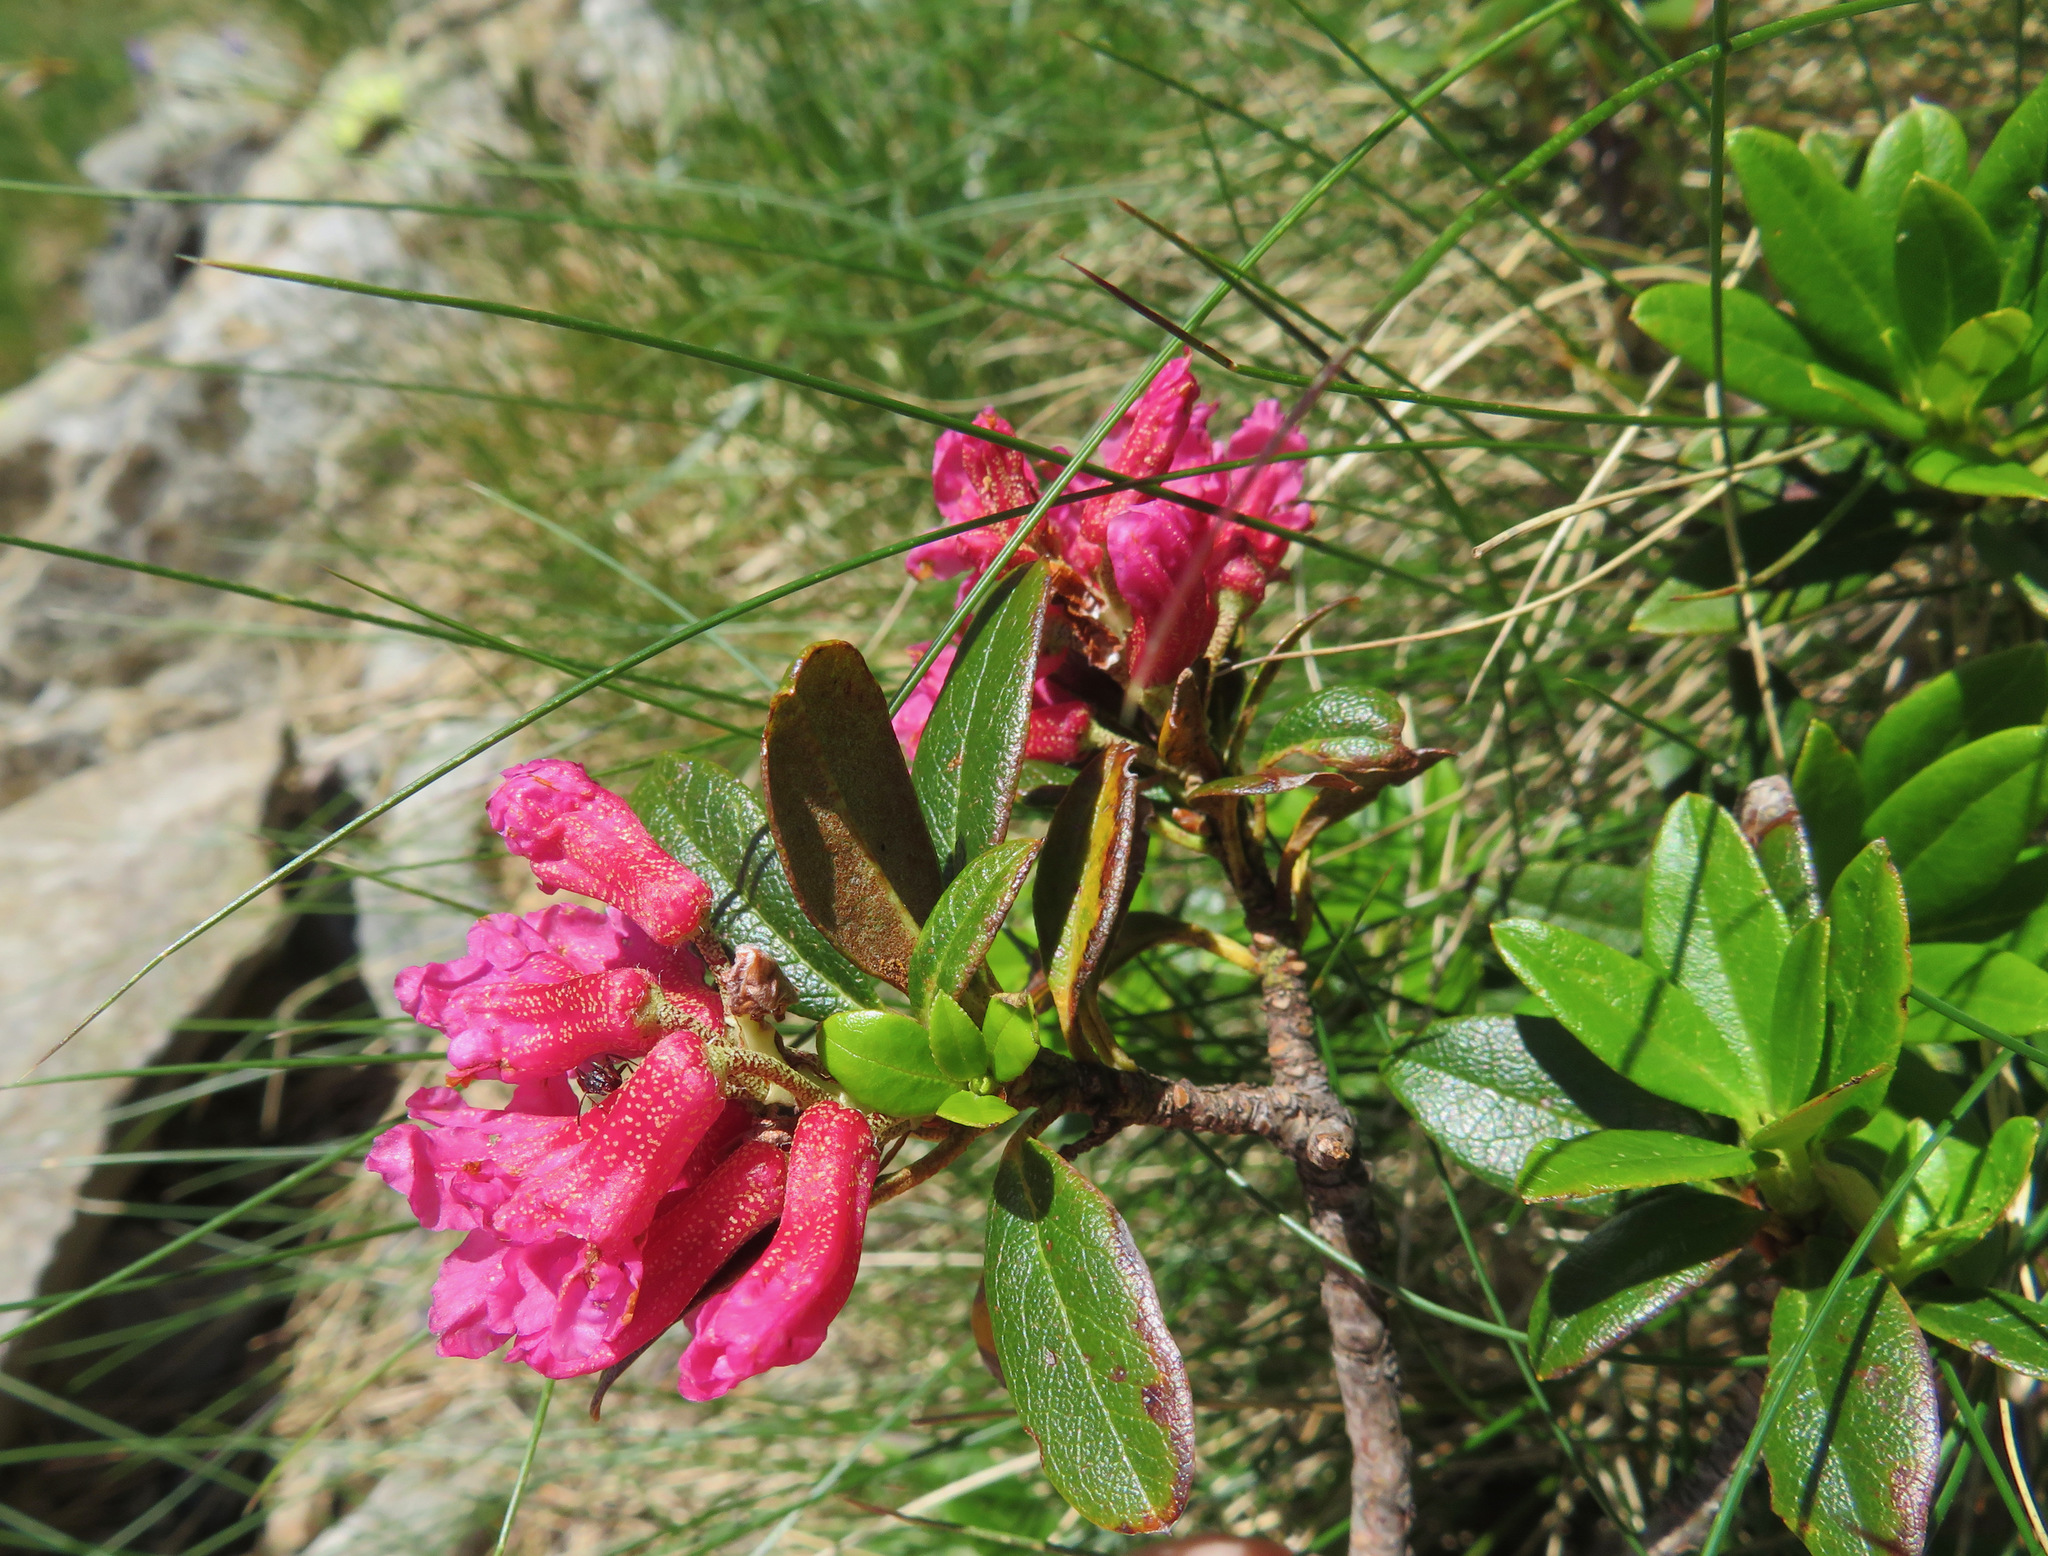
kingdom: Plantae
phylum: Tracheophyta
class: Magnoliopsida
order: Ericales
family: Ericaceae
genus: Rhododendron
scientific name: Rhododendron ferrugineum
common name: Alpenrose
